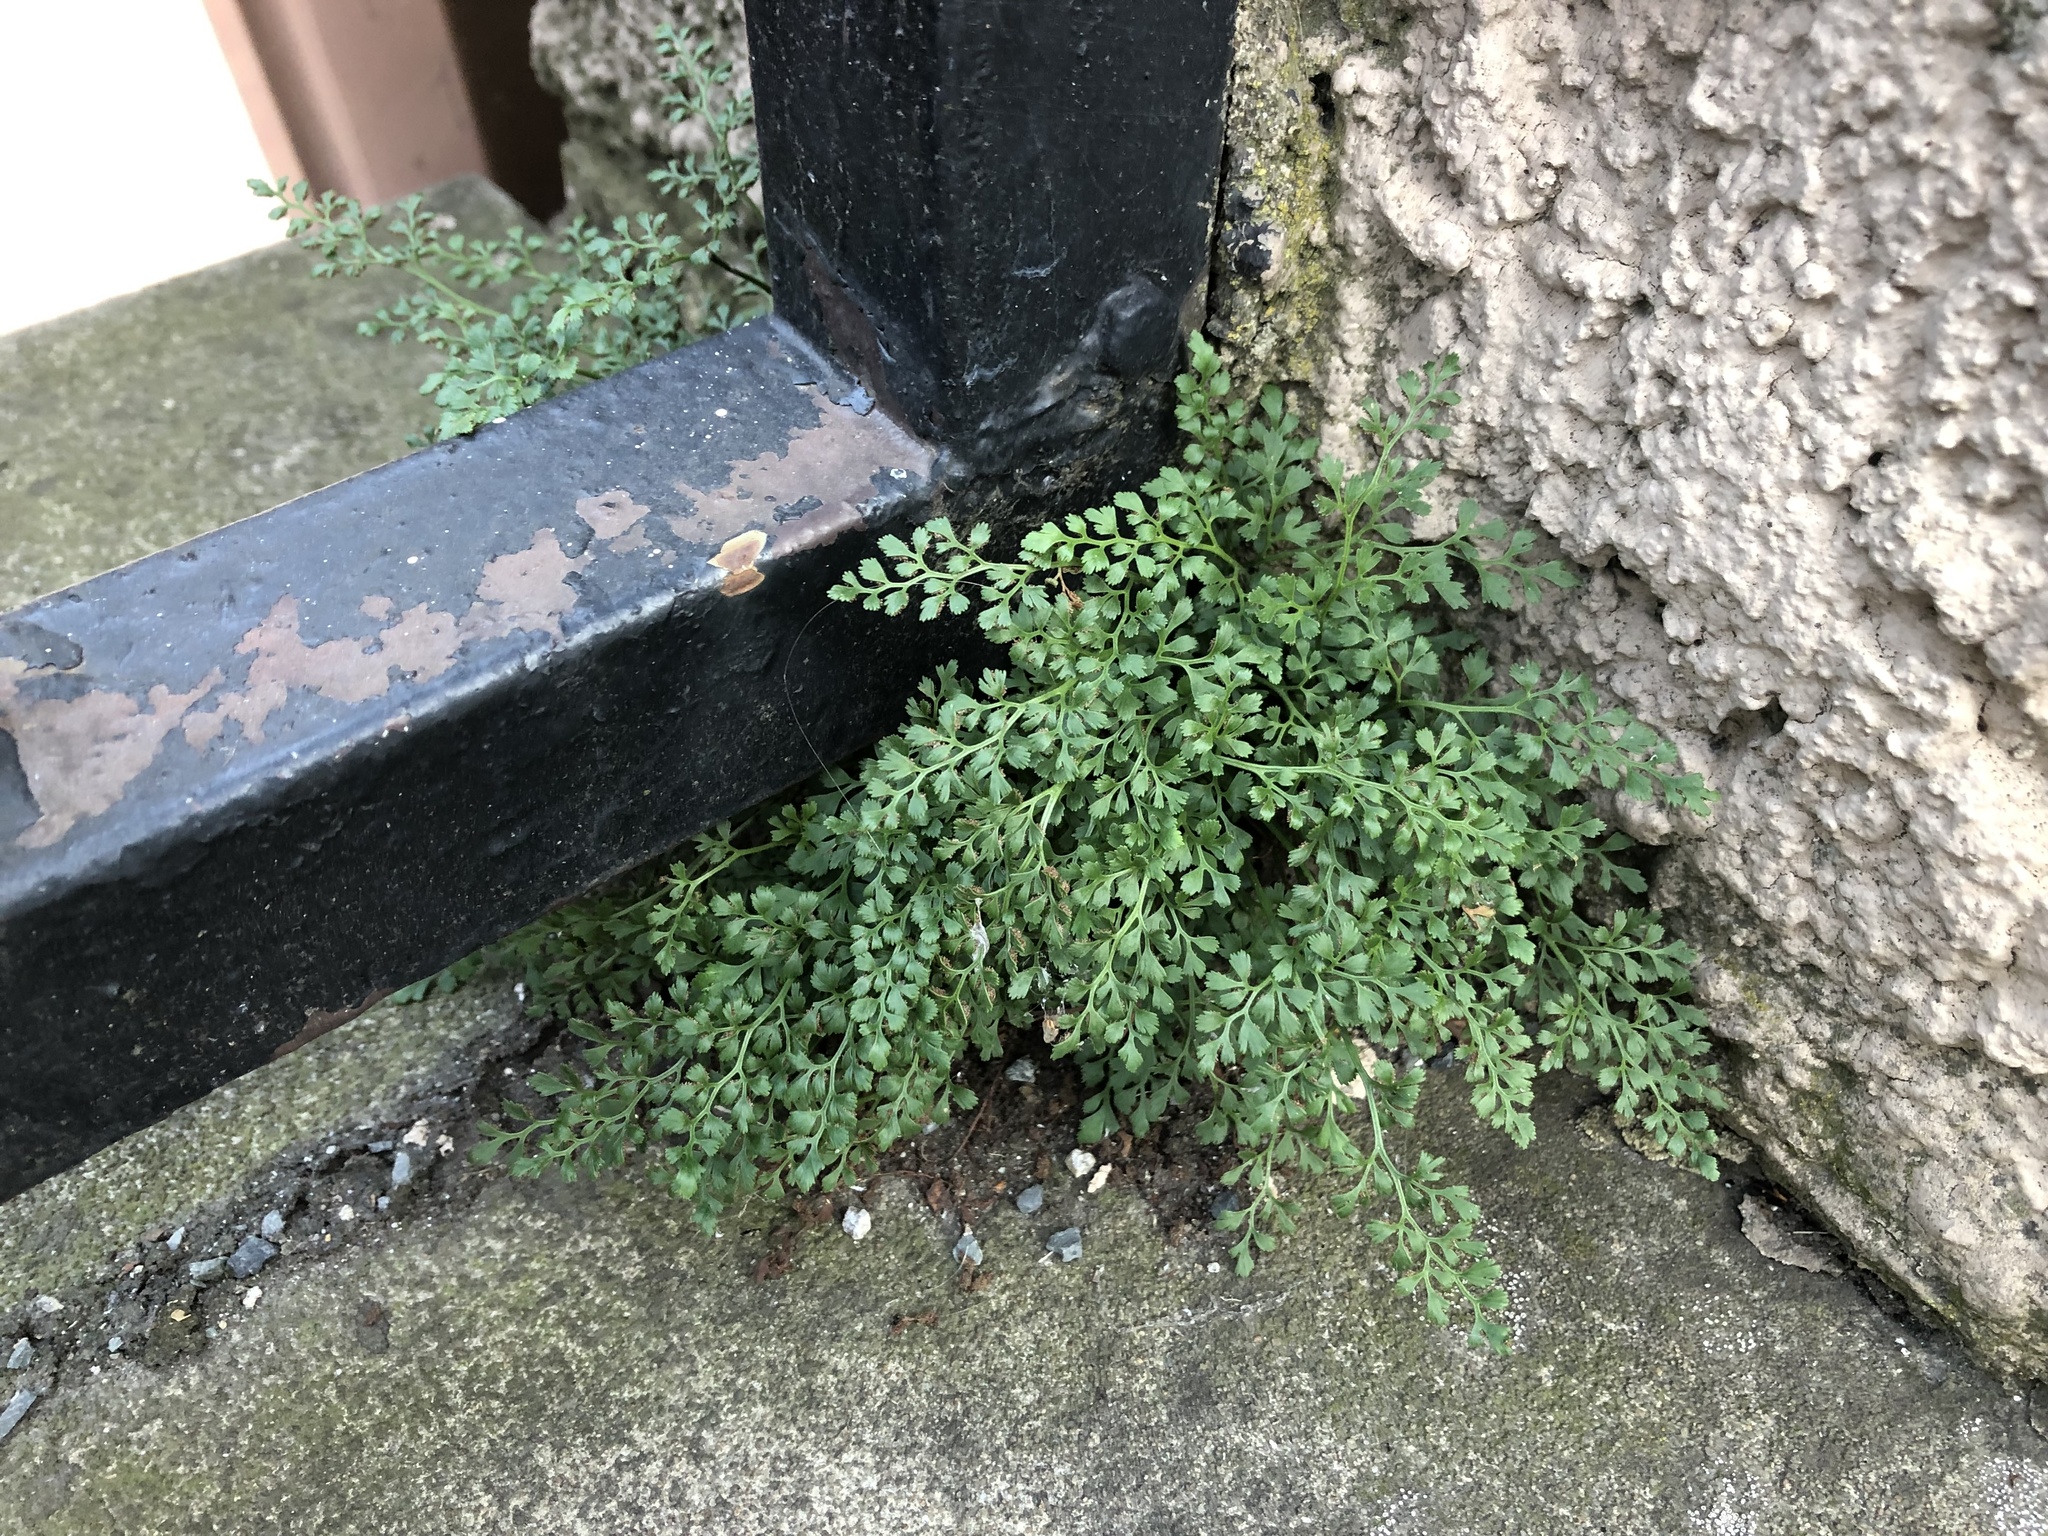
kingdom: Plantae
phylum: Tracheophyta
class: Polypodiopsida
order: Polypodiales
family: Aspleniaceae
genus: Asplenium
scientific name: Asplenium ruta-muraria
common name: Wall-rue
